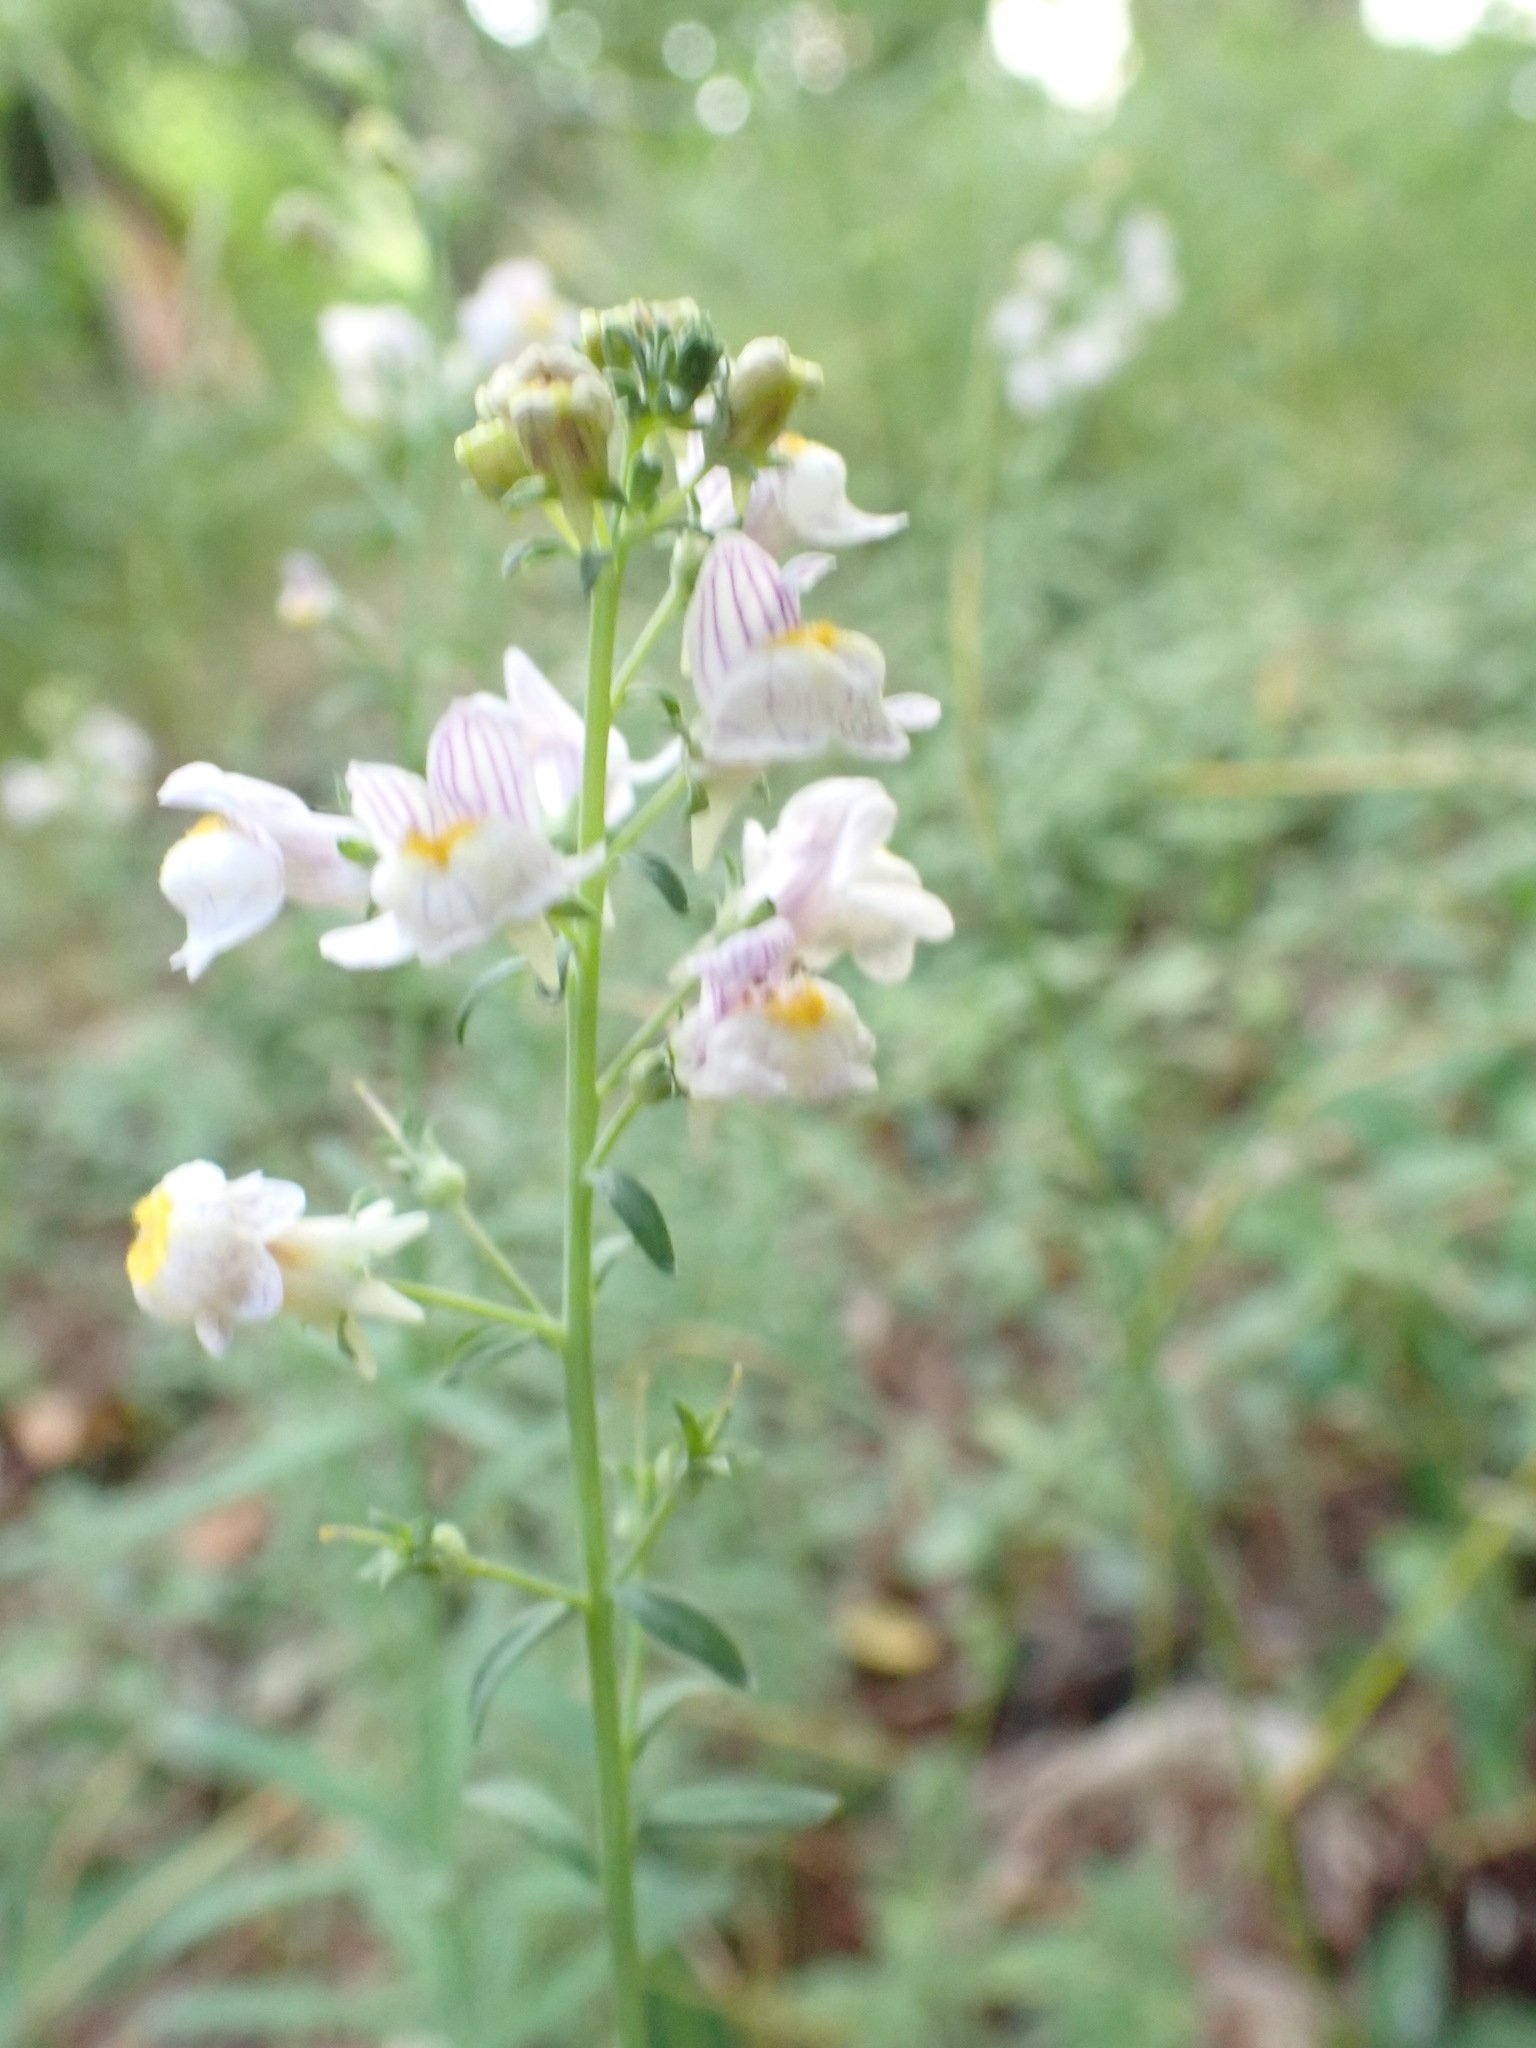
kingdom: Plantae
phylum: Tracheophyta
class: Magnoliopsida
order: Lamiales
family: Plantaginaceae
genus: Linaria
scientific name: Linaria repens
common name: Pale toadflax
